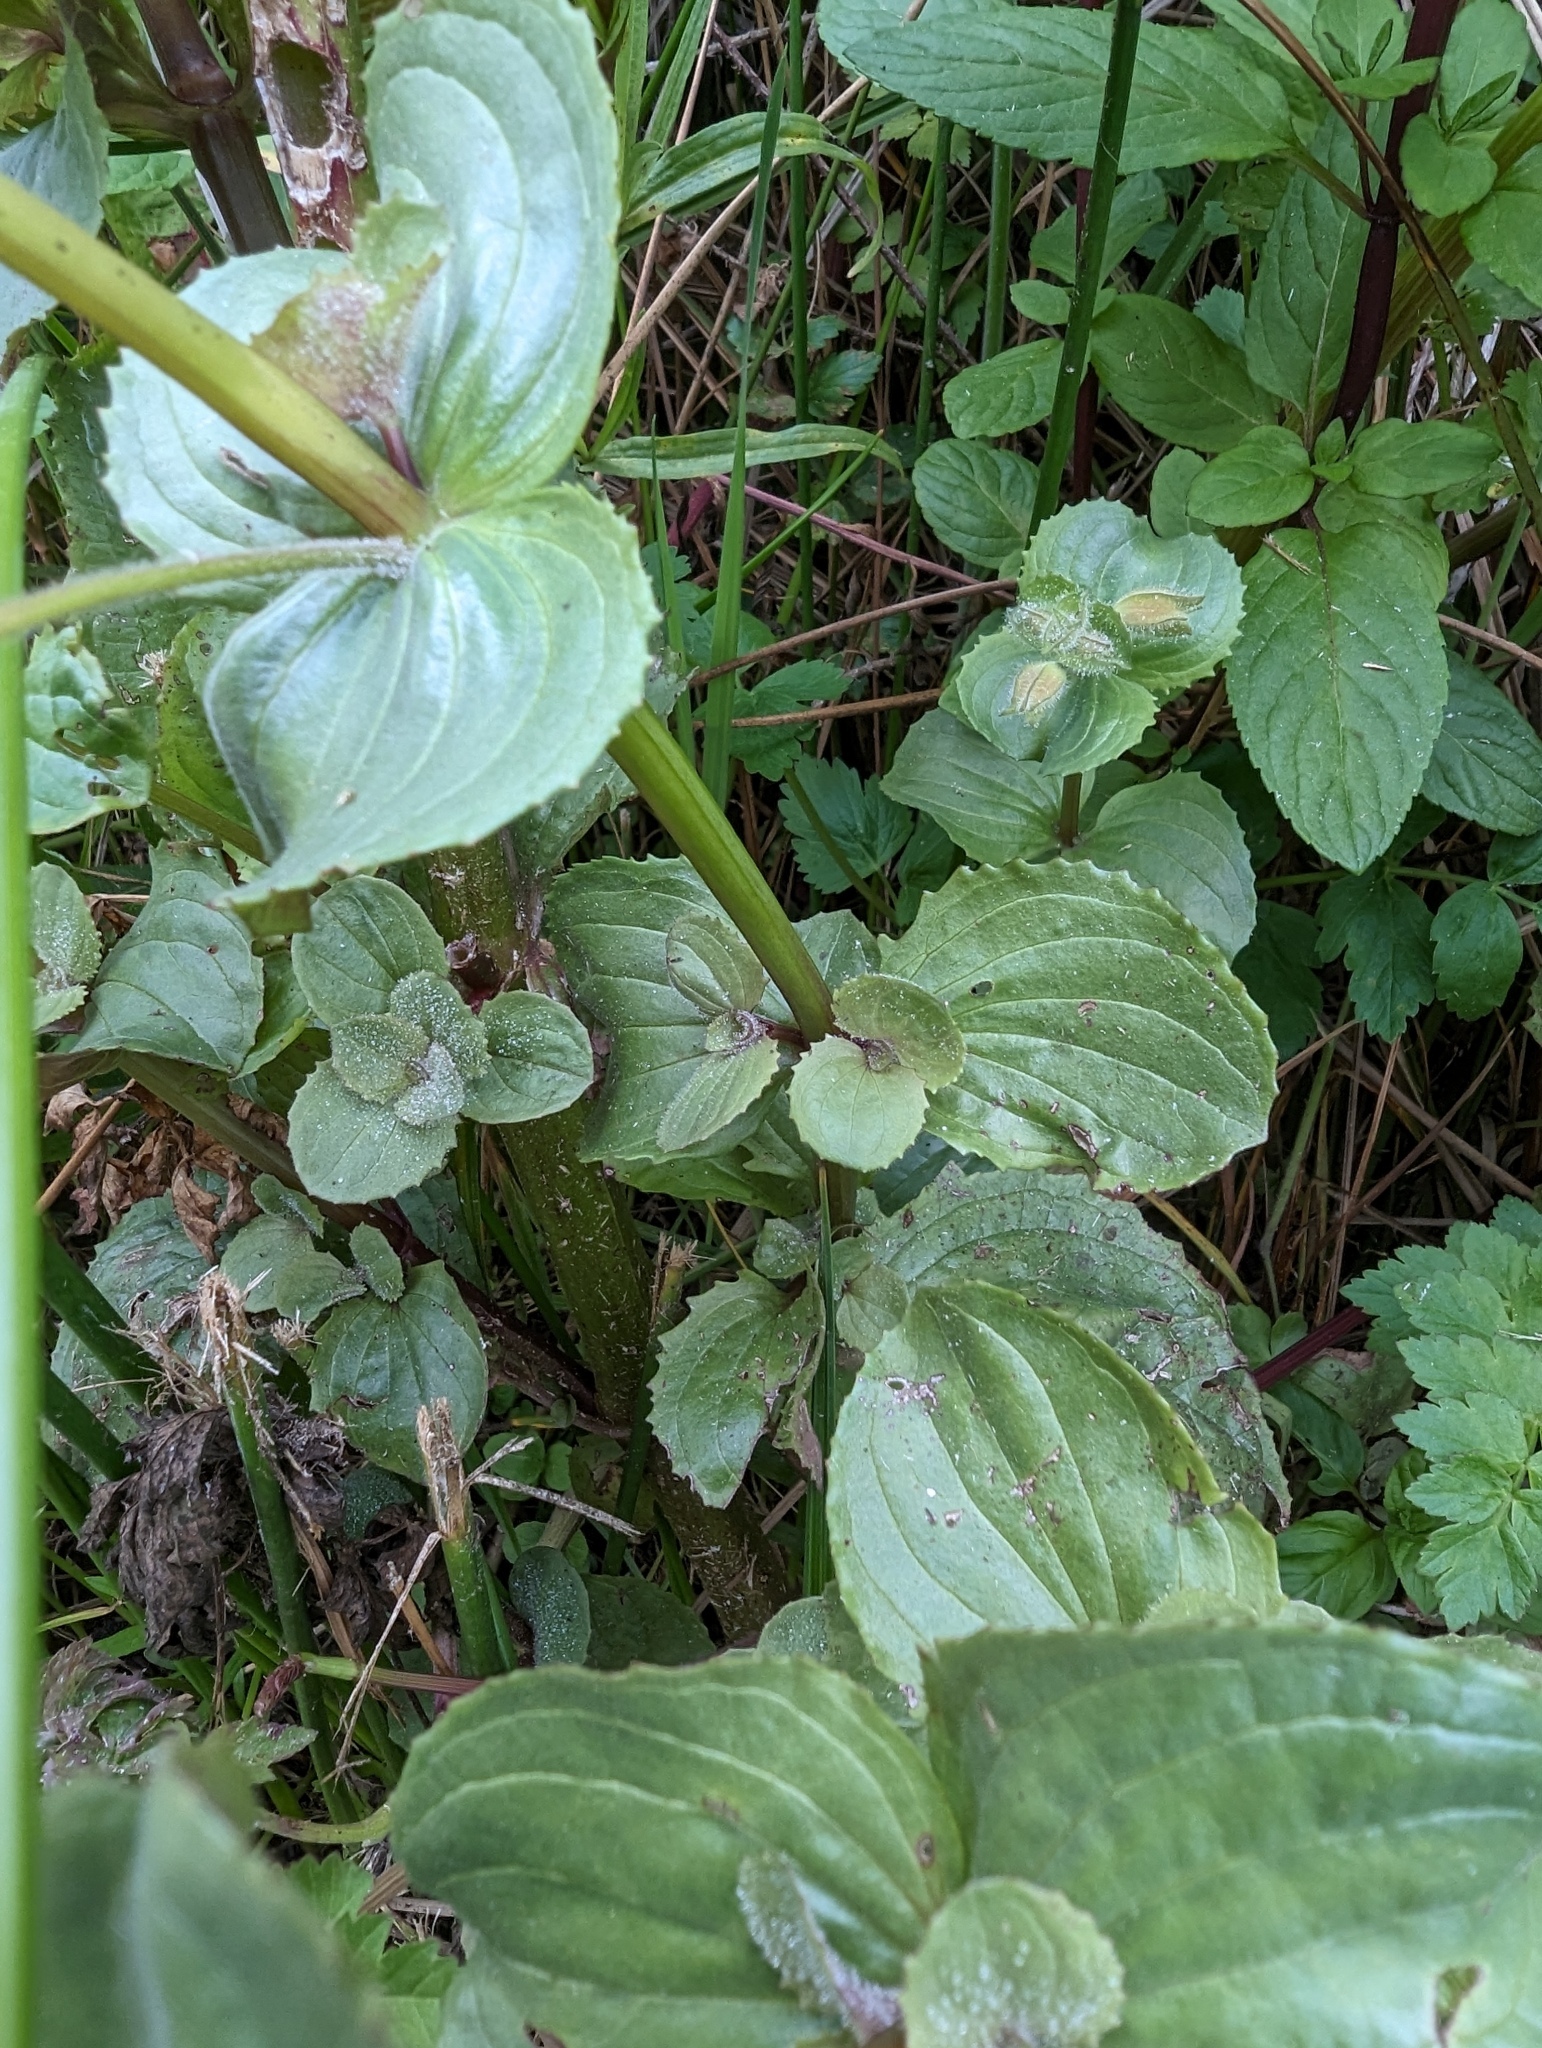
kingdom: Plantae
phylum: Tracheophyta
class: Magnoliopsida
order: Lamiales
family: Phrymaceae
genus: Erythranthe
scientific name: Erythranthe grandis
